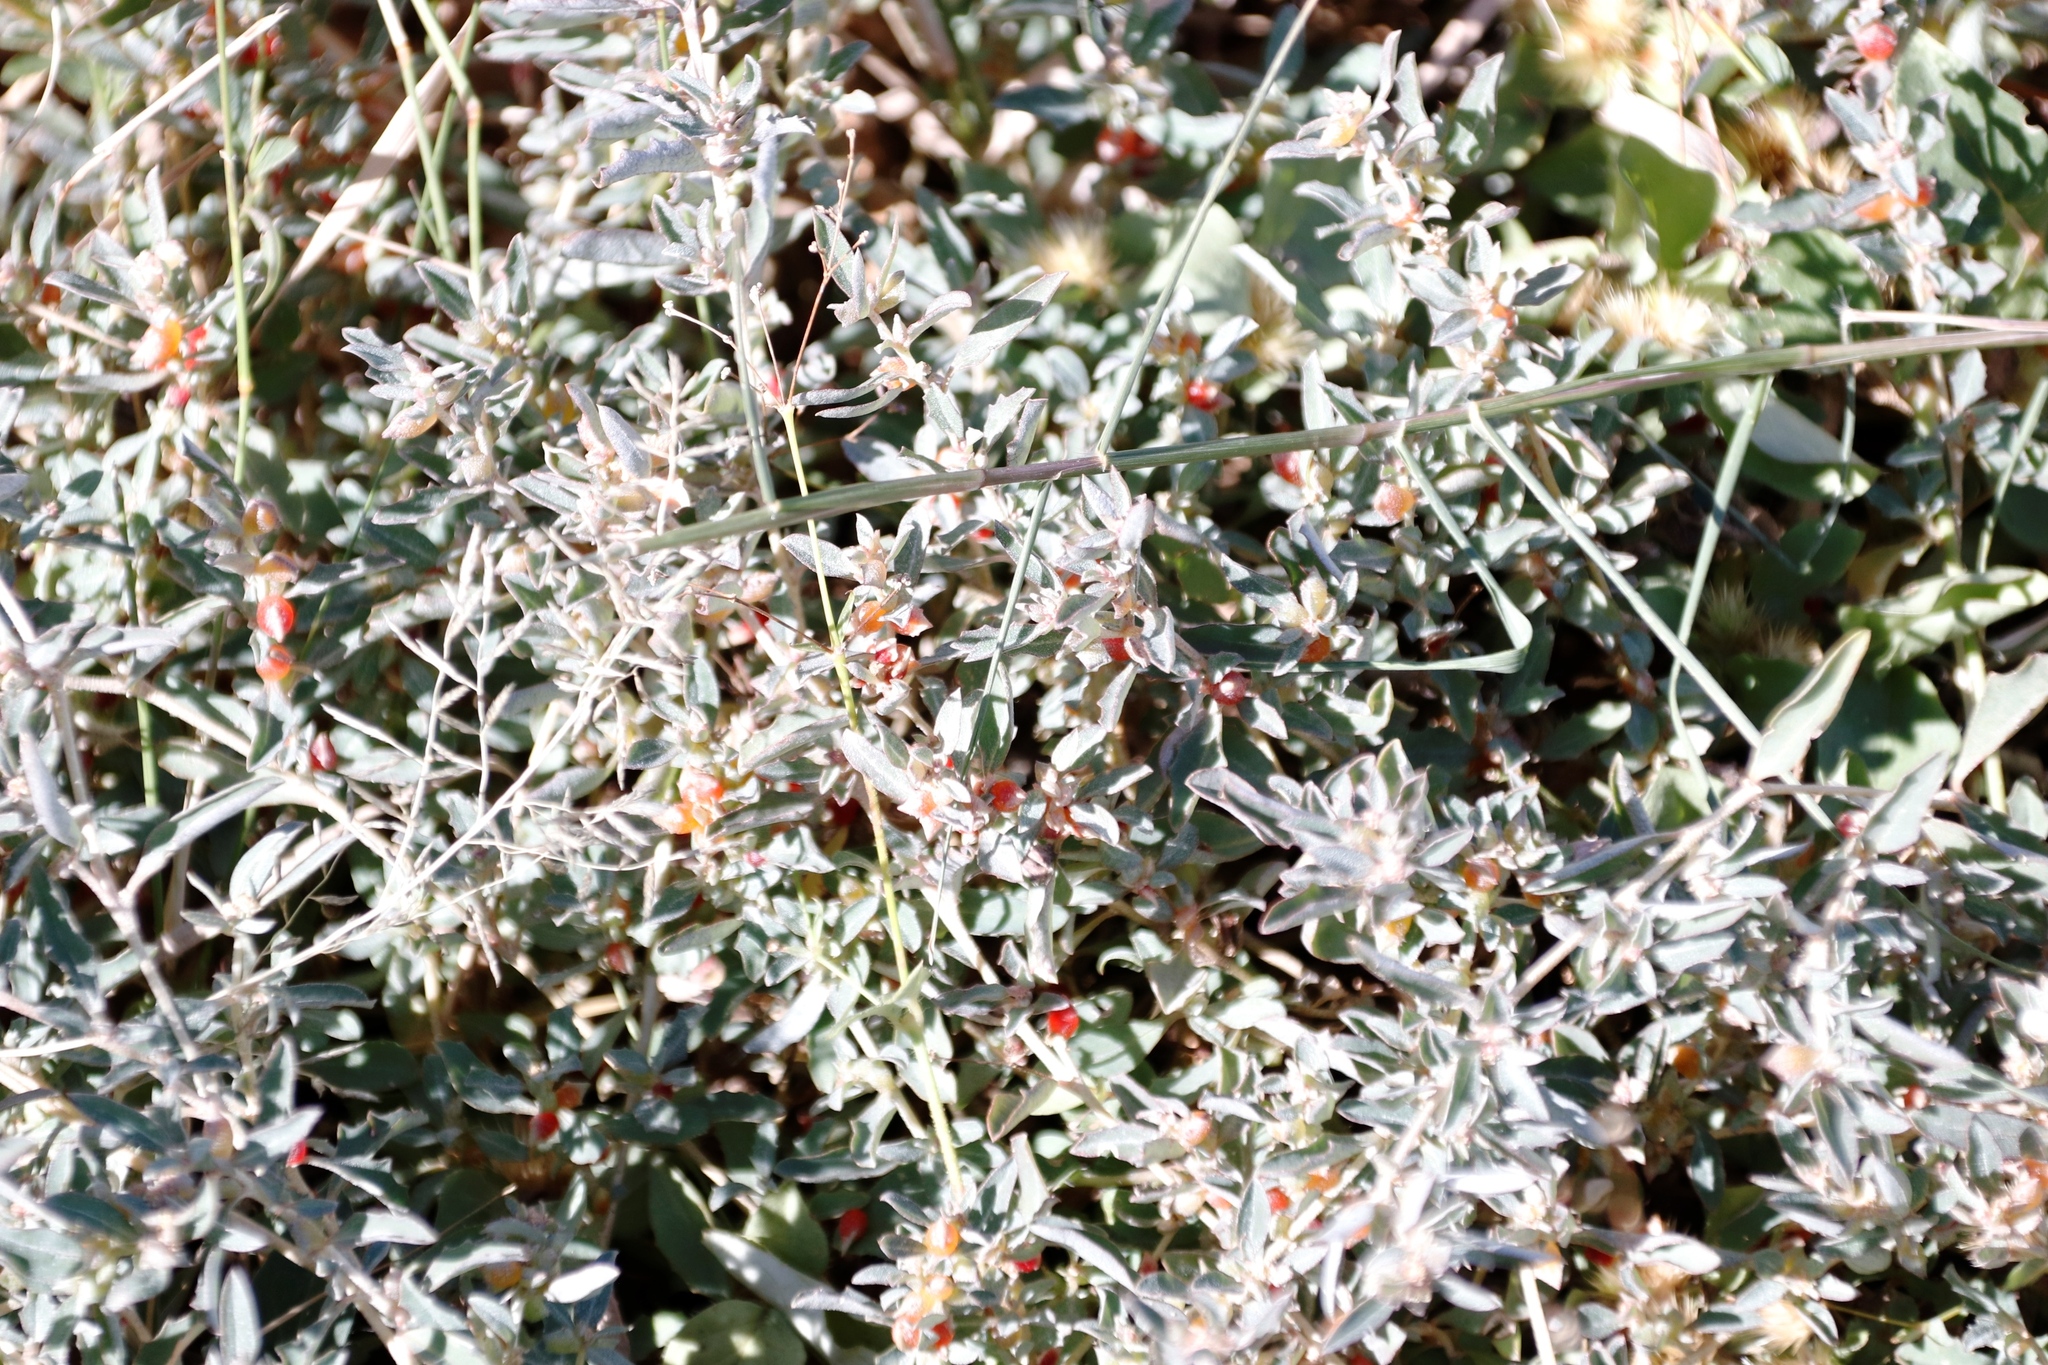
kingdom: Plantae
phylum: Tracheophyta
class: Magnoliopsida
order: Caryophyllales
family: Amaranthaceae
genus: Atriplex
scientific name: Atriplex semibaccata
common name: Australian saltbush
